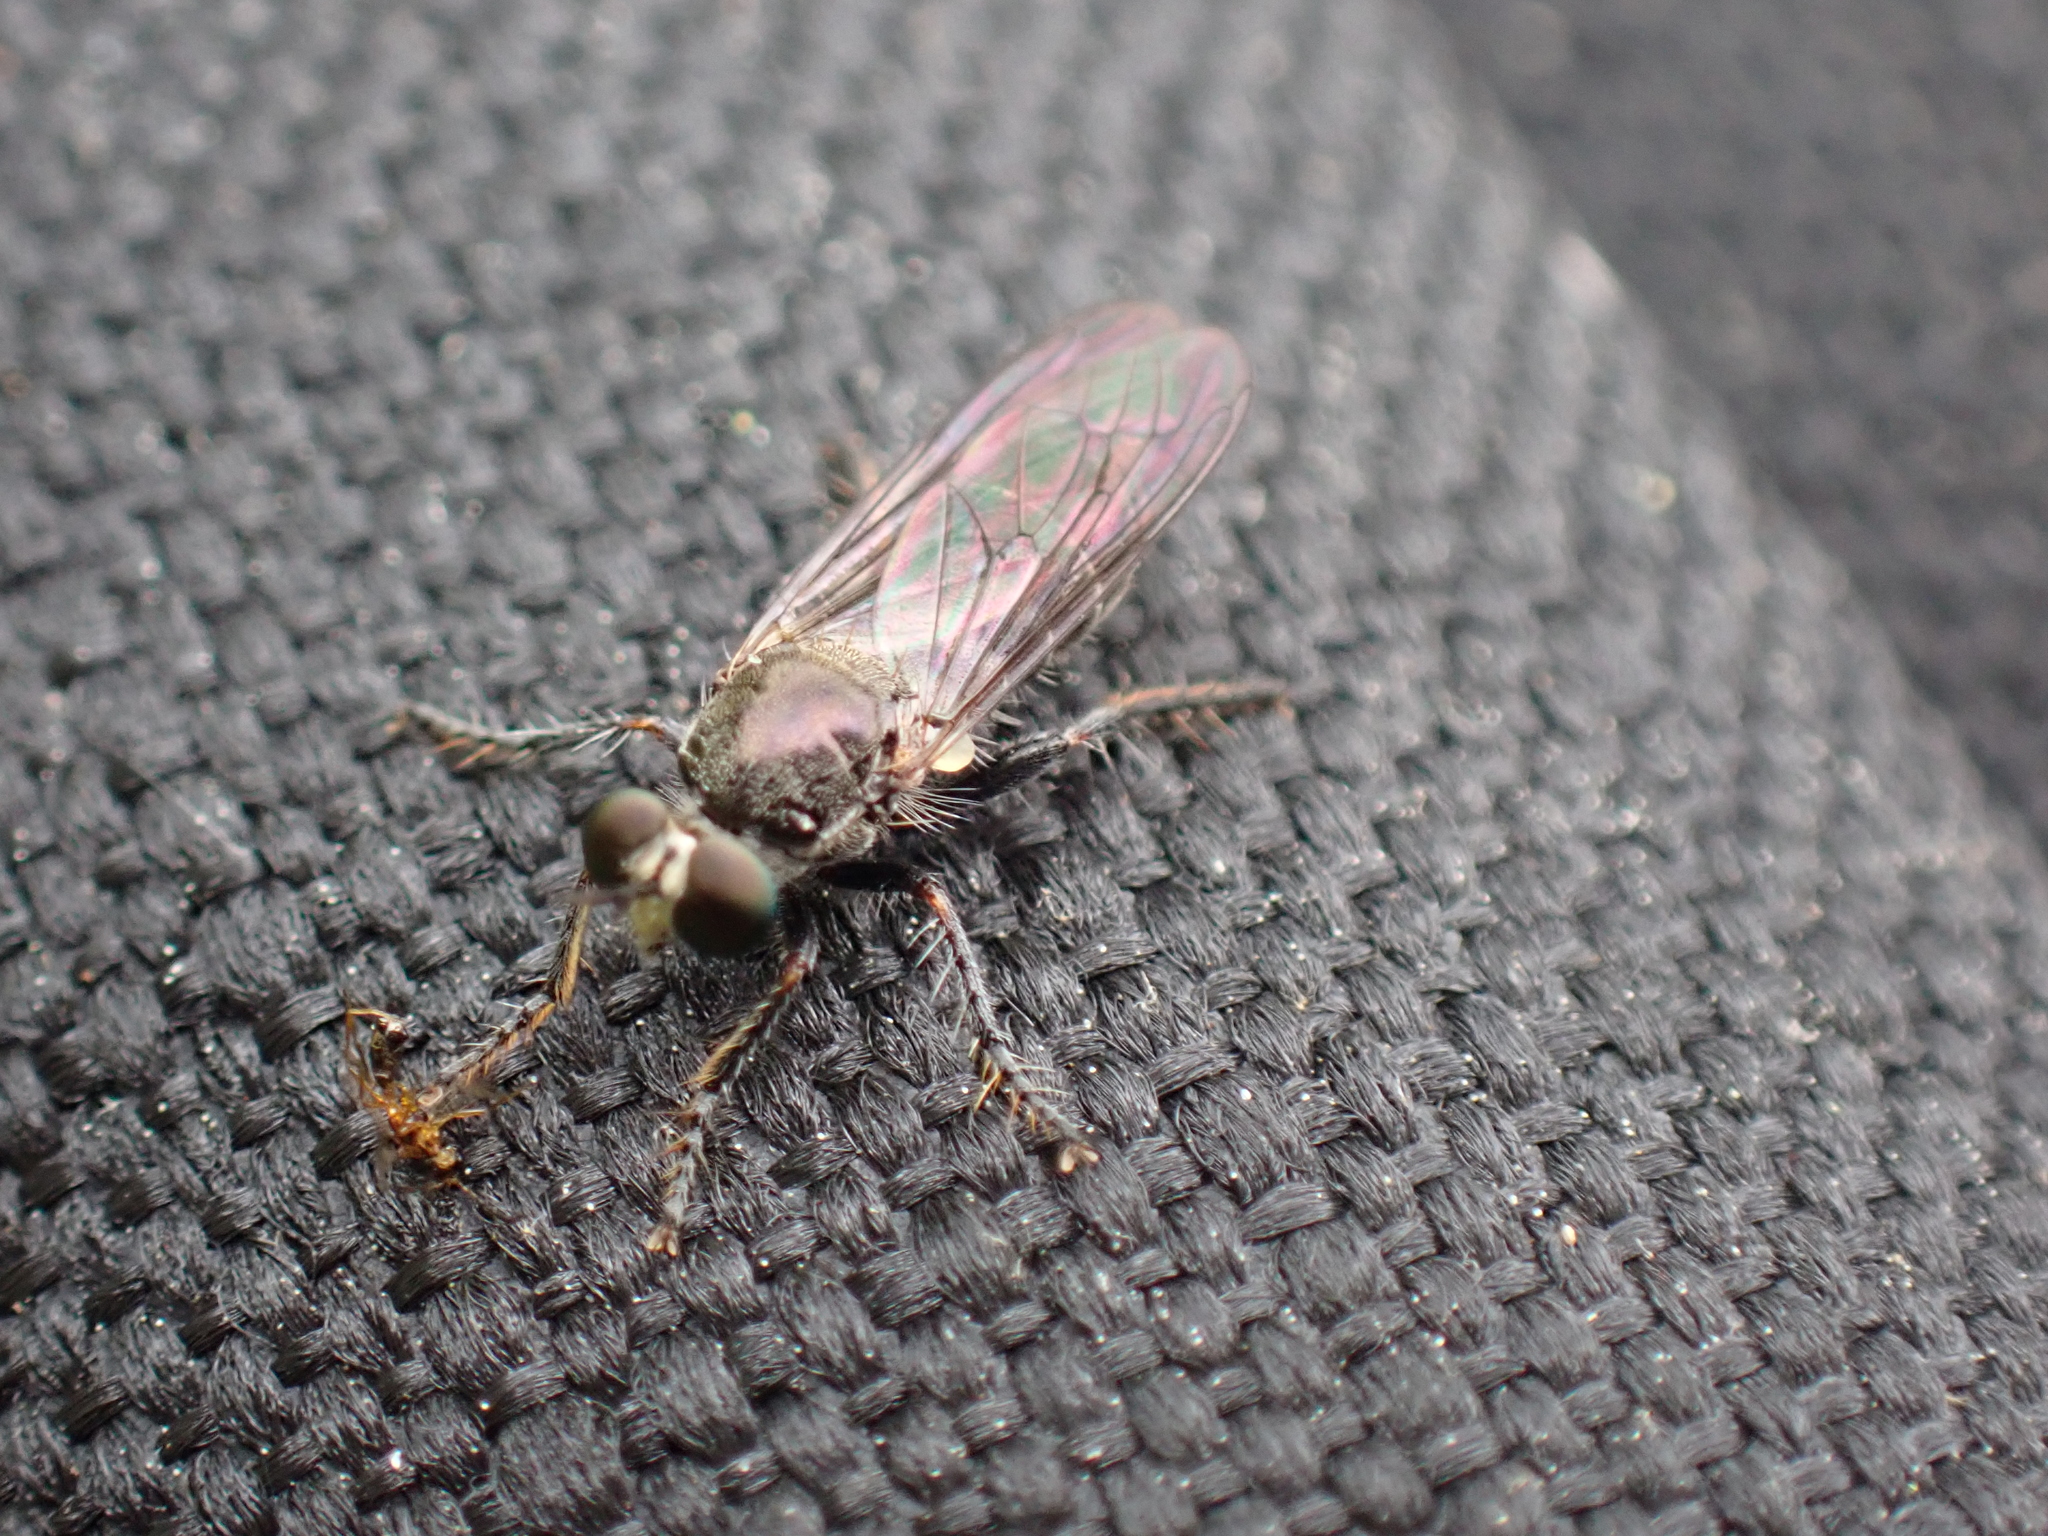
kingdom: Animalia
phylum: Arthropoda
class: Insecta
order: Diptera
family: Asilidae
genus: Atomosia
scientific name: Atomosia puella
